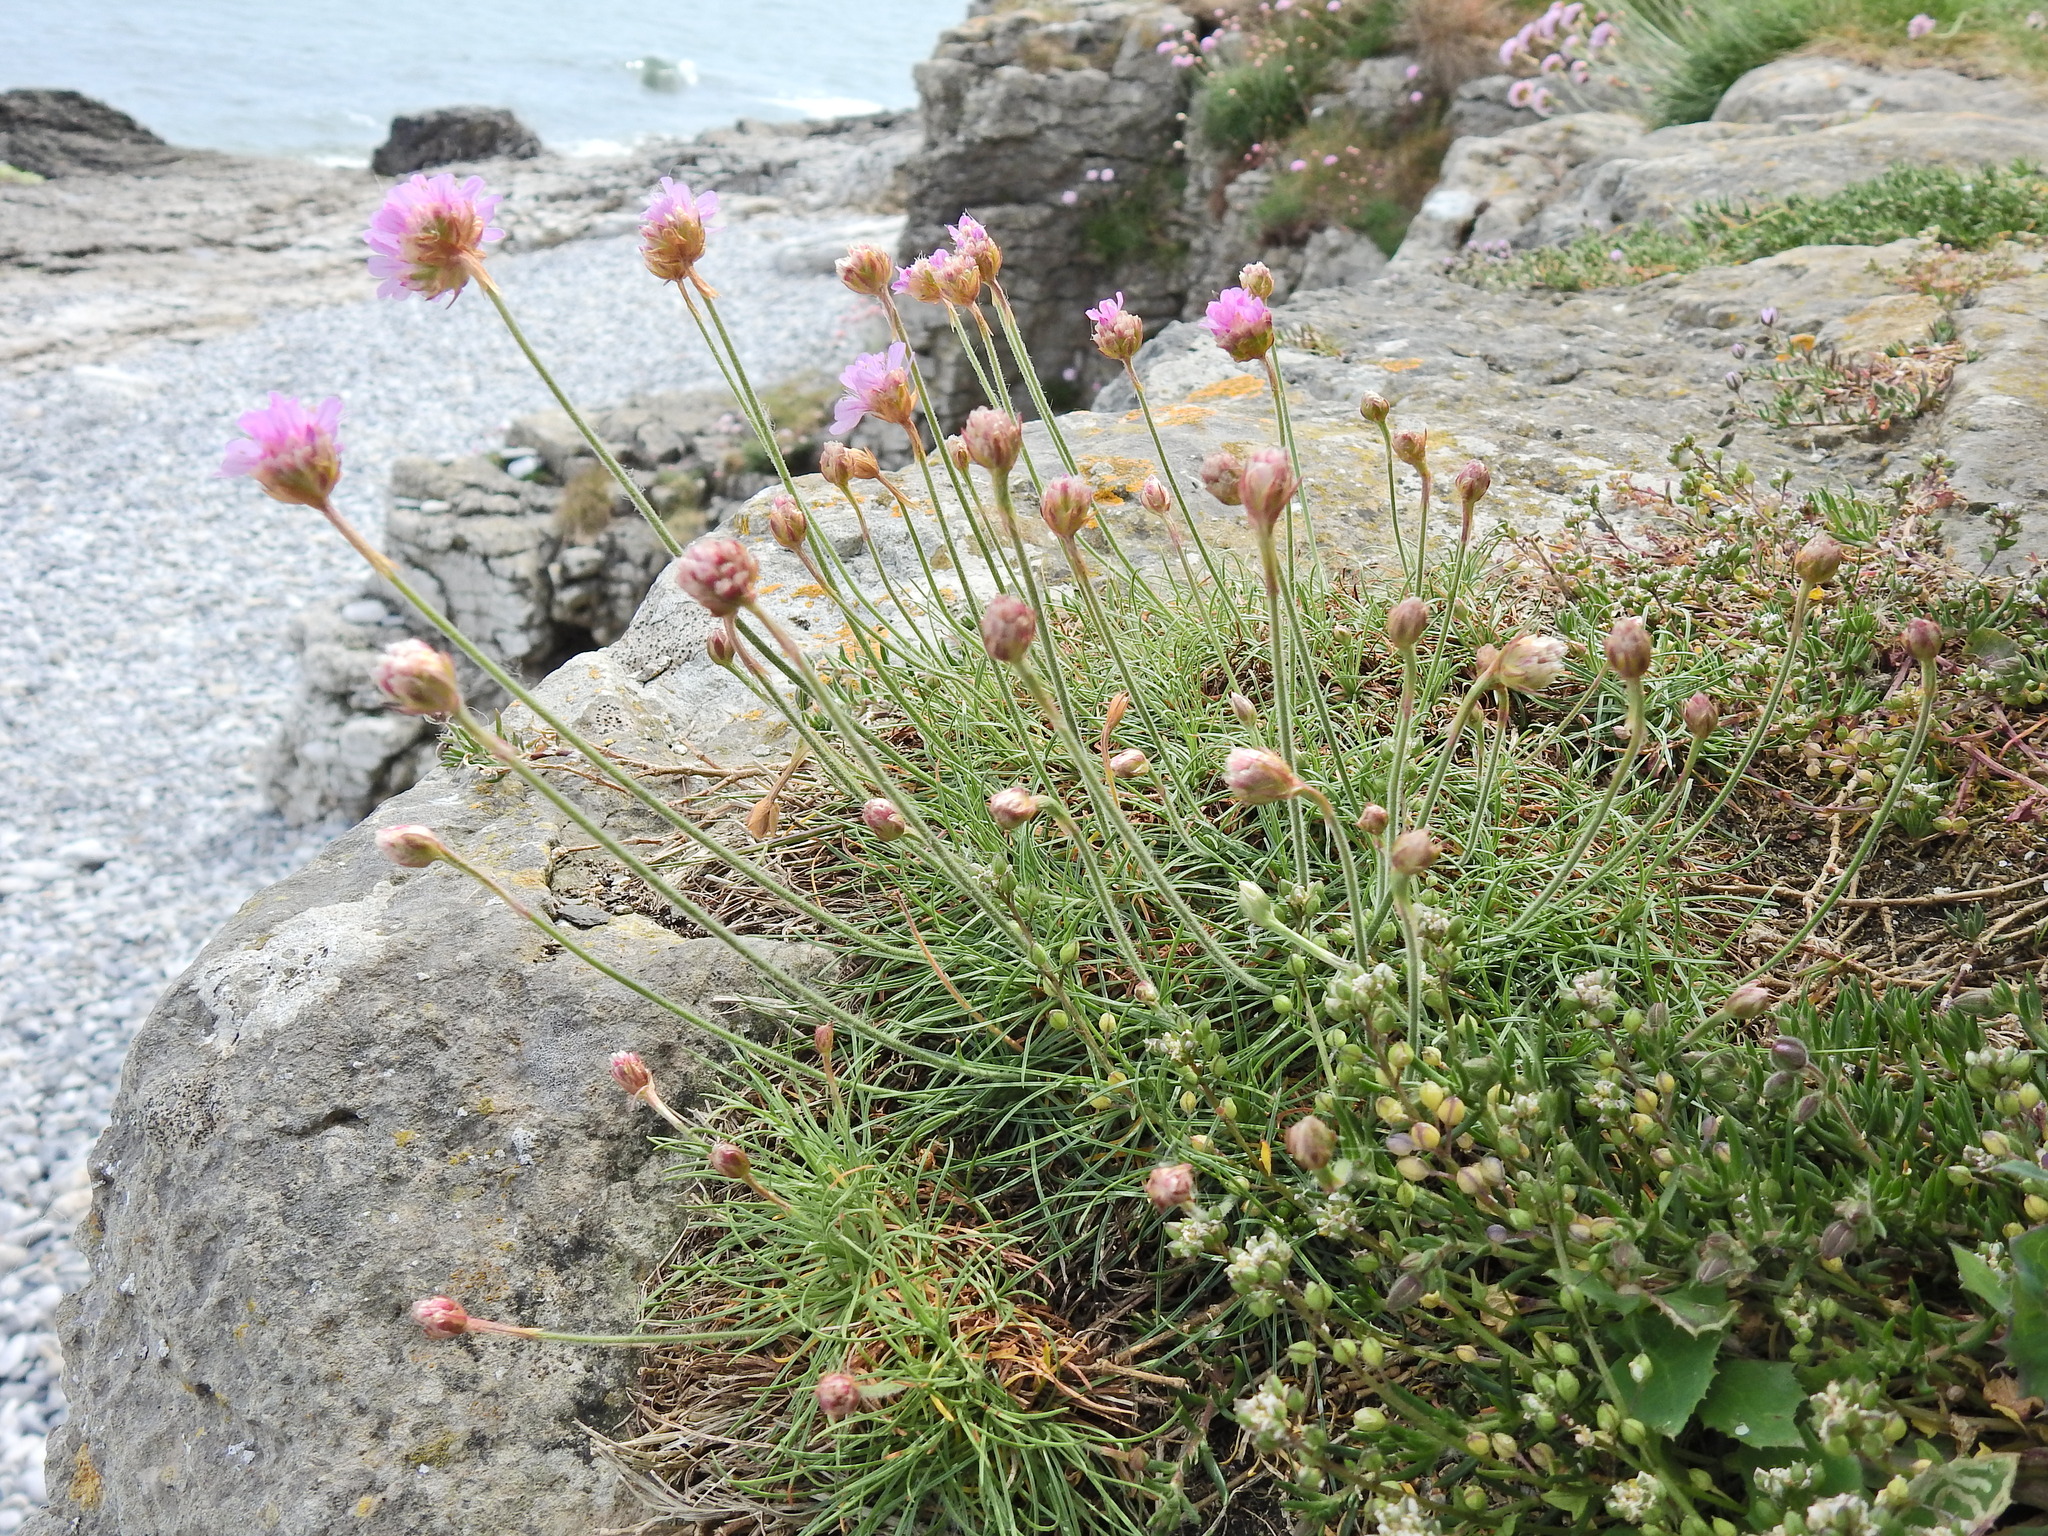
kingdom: Plantae
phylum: Tracheophyta
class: Magnoliopsida
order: Caryophyllales
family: Plumbaginaceae
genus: Armeria
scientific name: Armeria maritima
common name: Thrift
